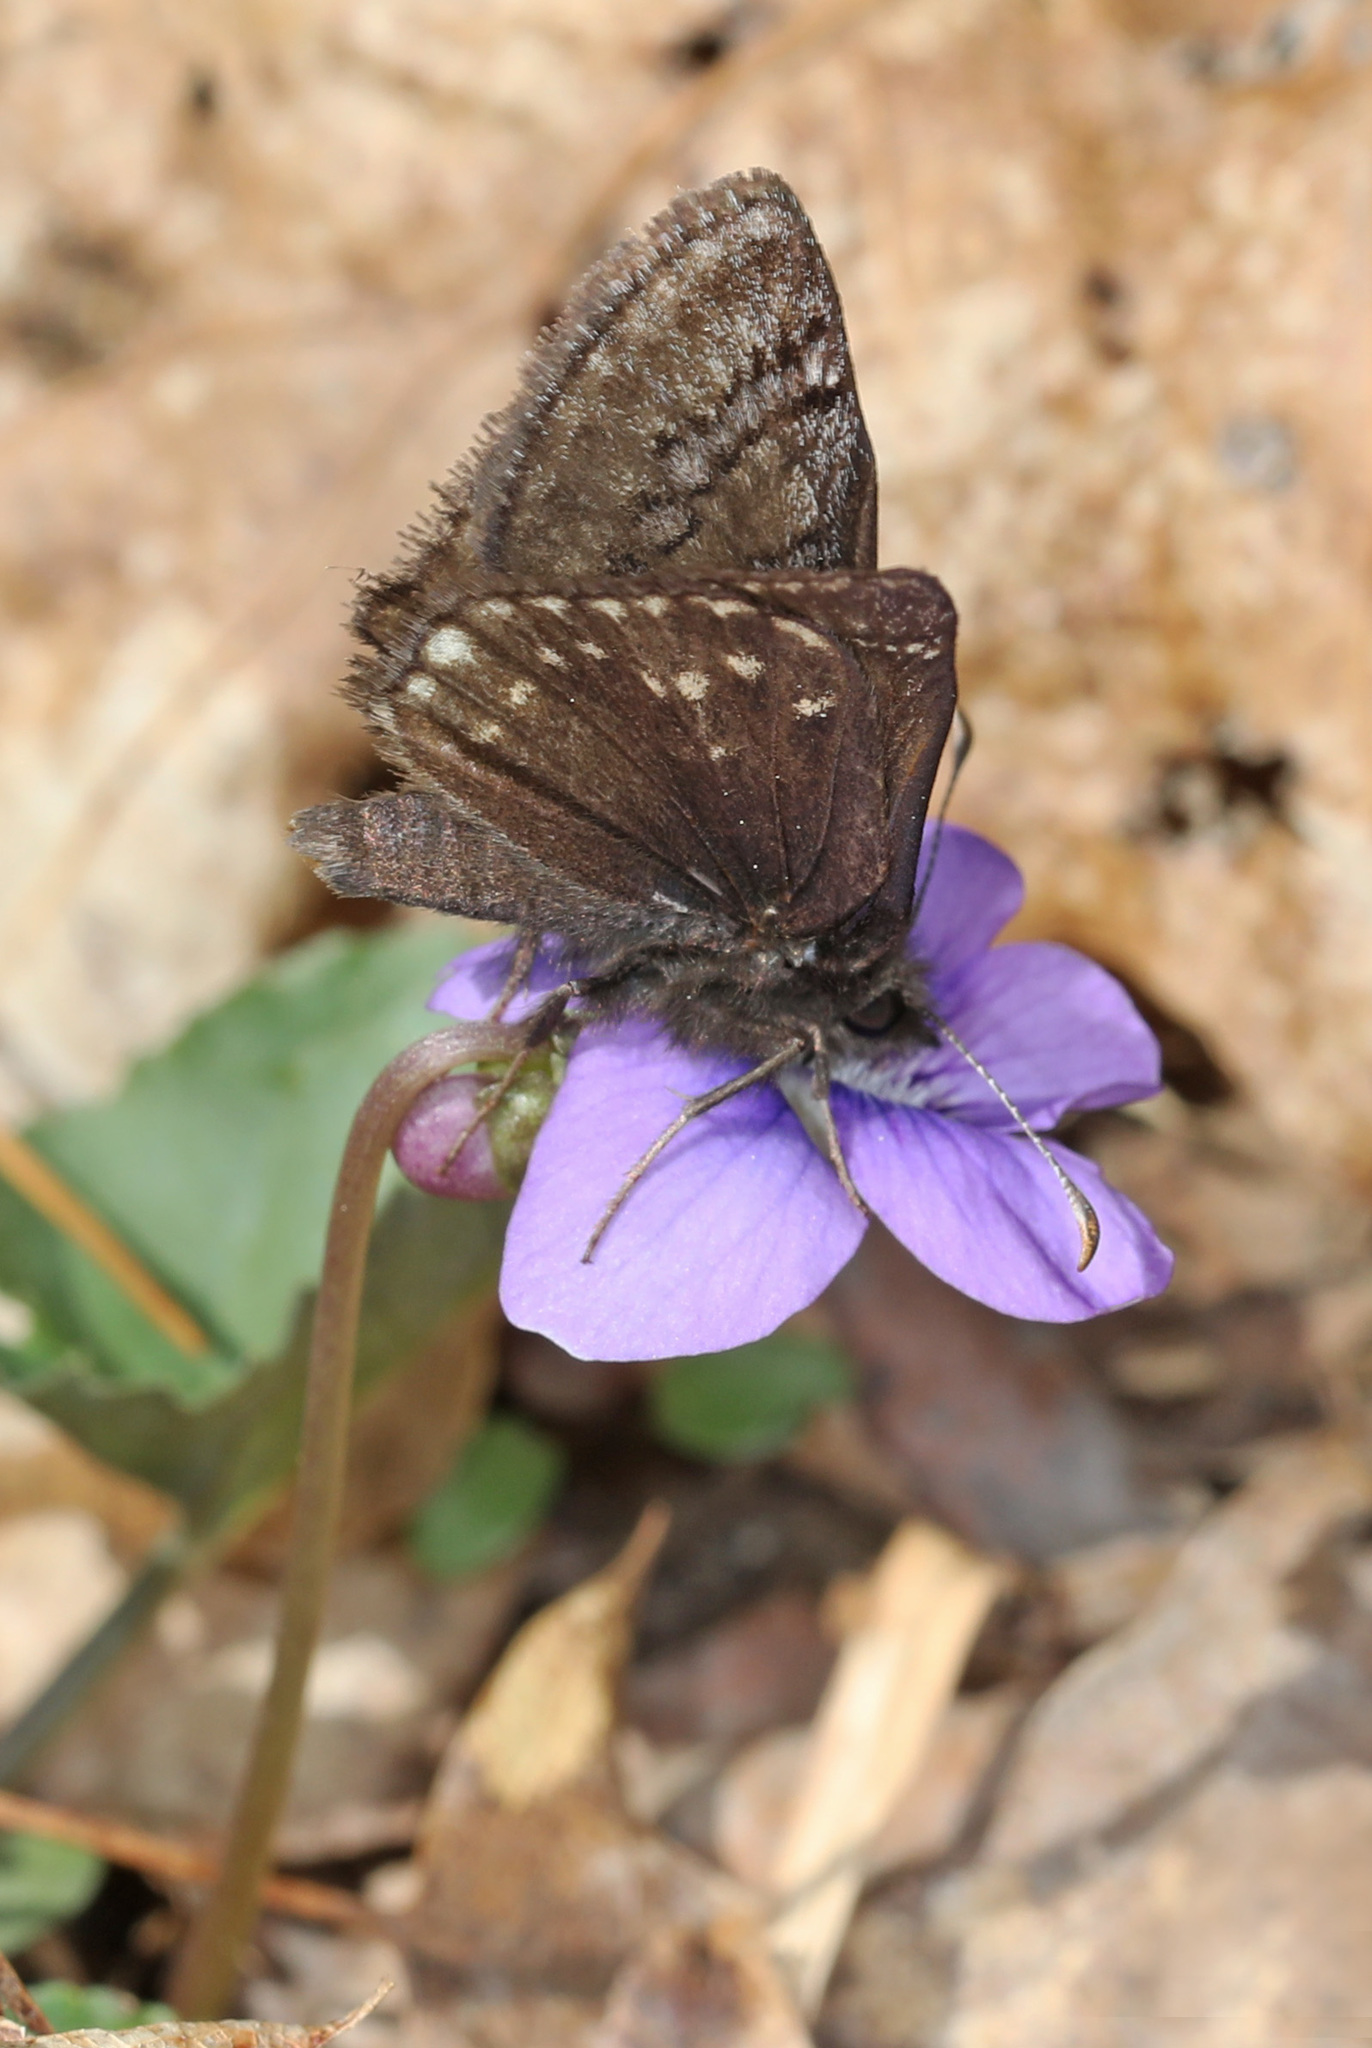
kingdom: Animalia
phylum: Arthropoda
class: Insecta
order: Lepidoptera
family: Hesperiidae
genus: Erynnis
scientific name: Erynnis brizo
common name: Sleepy duskywing
